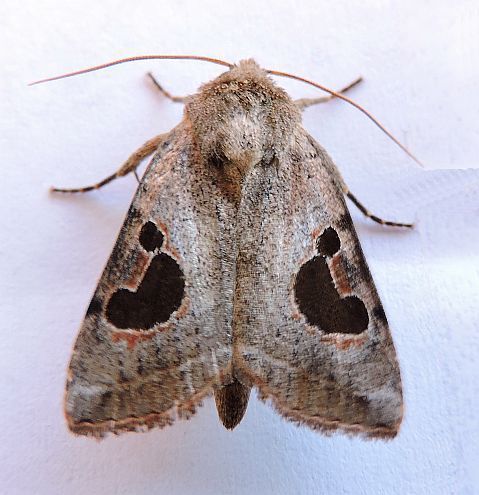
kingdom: Animalia
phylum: Arthropoda
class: Insecta
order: Lepidoptera
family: Noctuidae
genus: Eriopyga
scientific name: Eriopyga lunata
